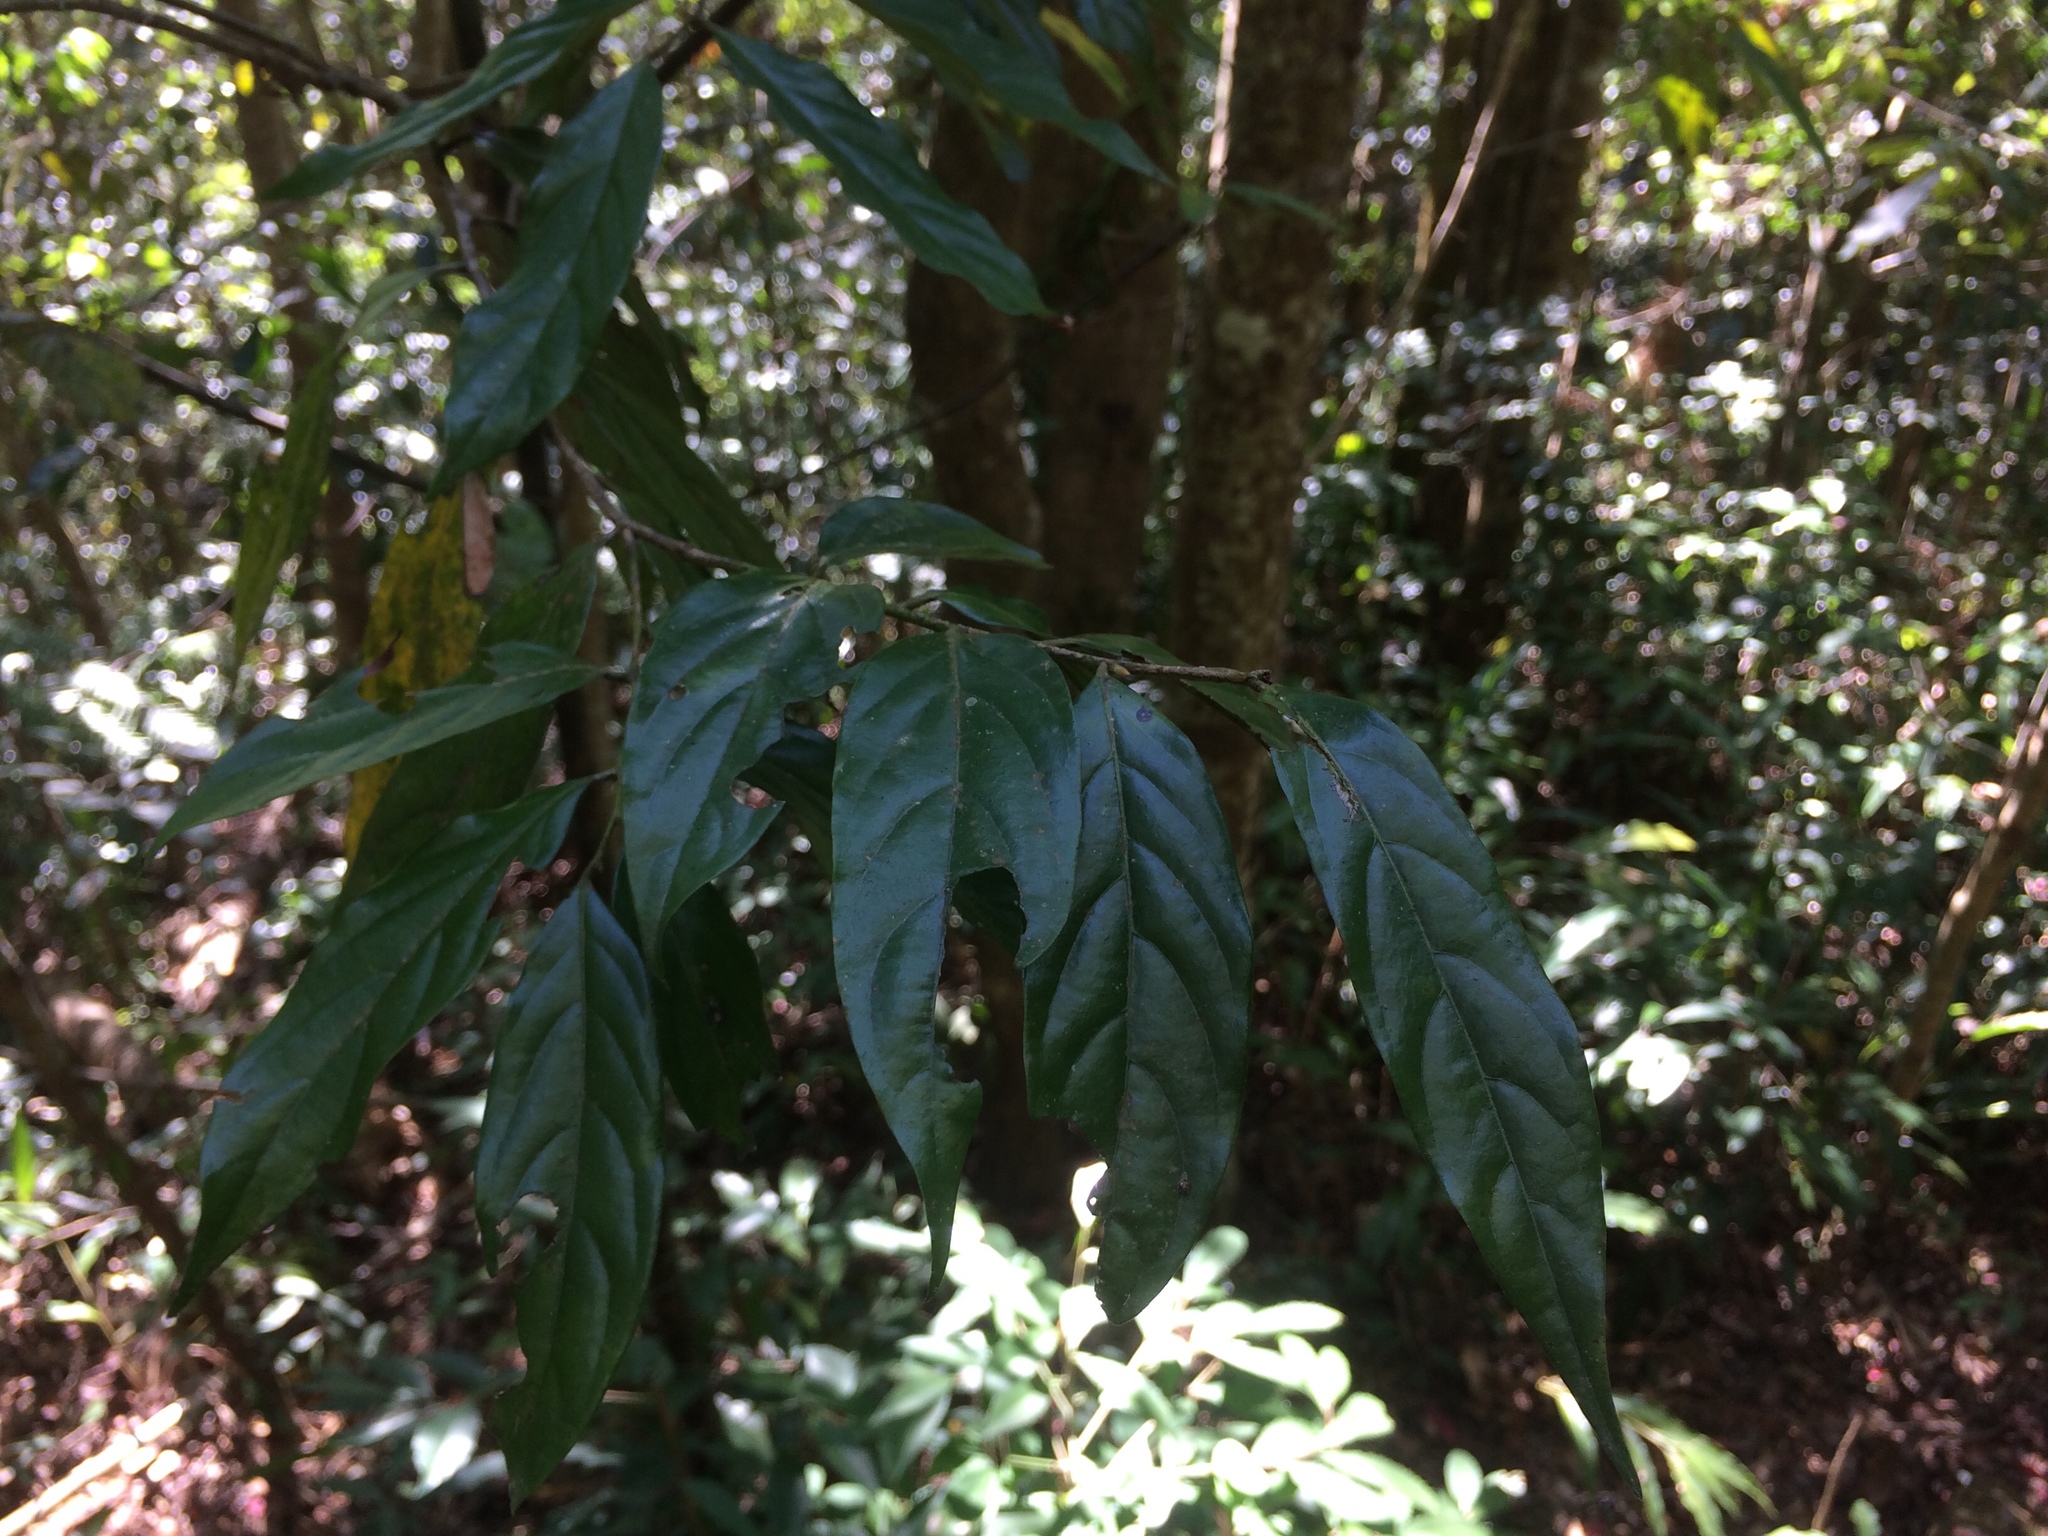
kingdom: Plantae
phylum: Tracheophyta
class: Magnoliopsida
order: Ericales
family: Ebenaceae
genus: Diospyros
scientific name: Diospyros eriantha
